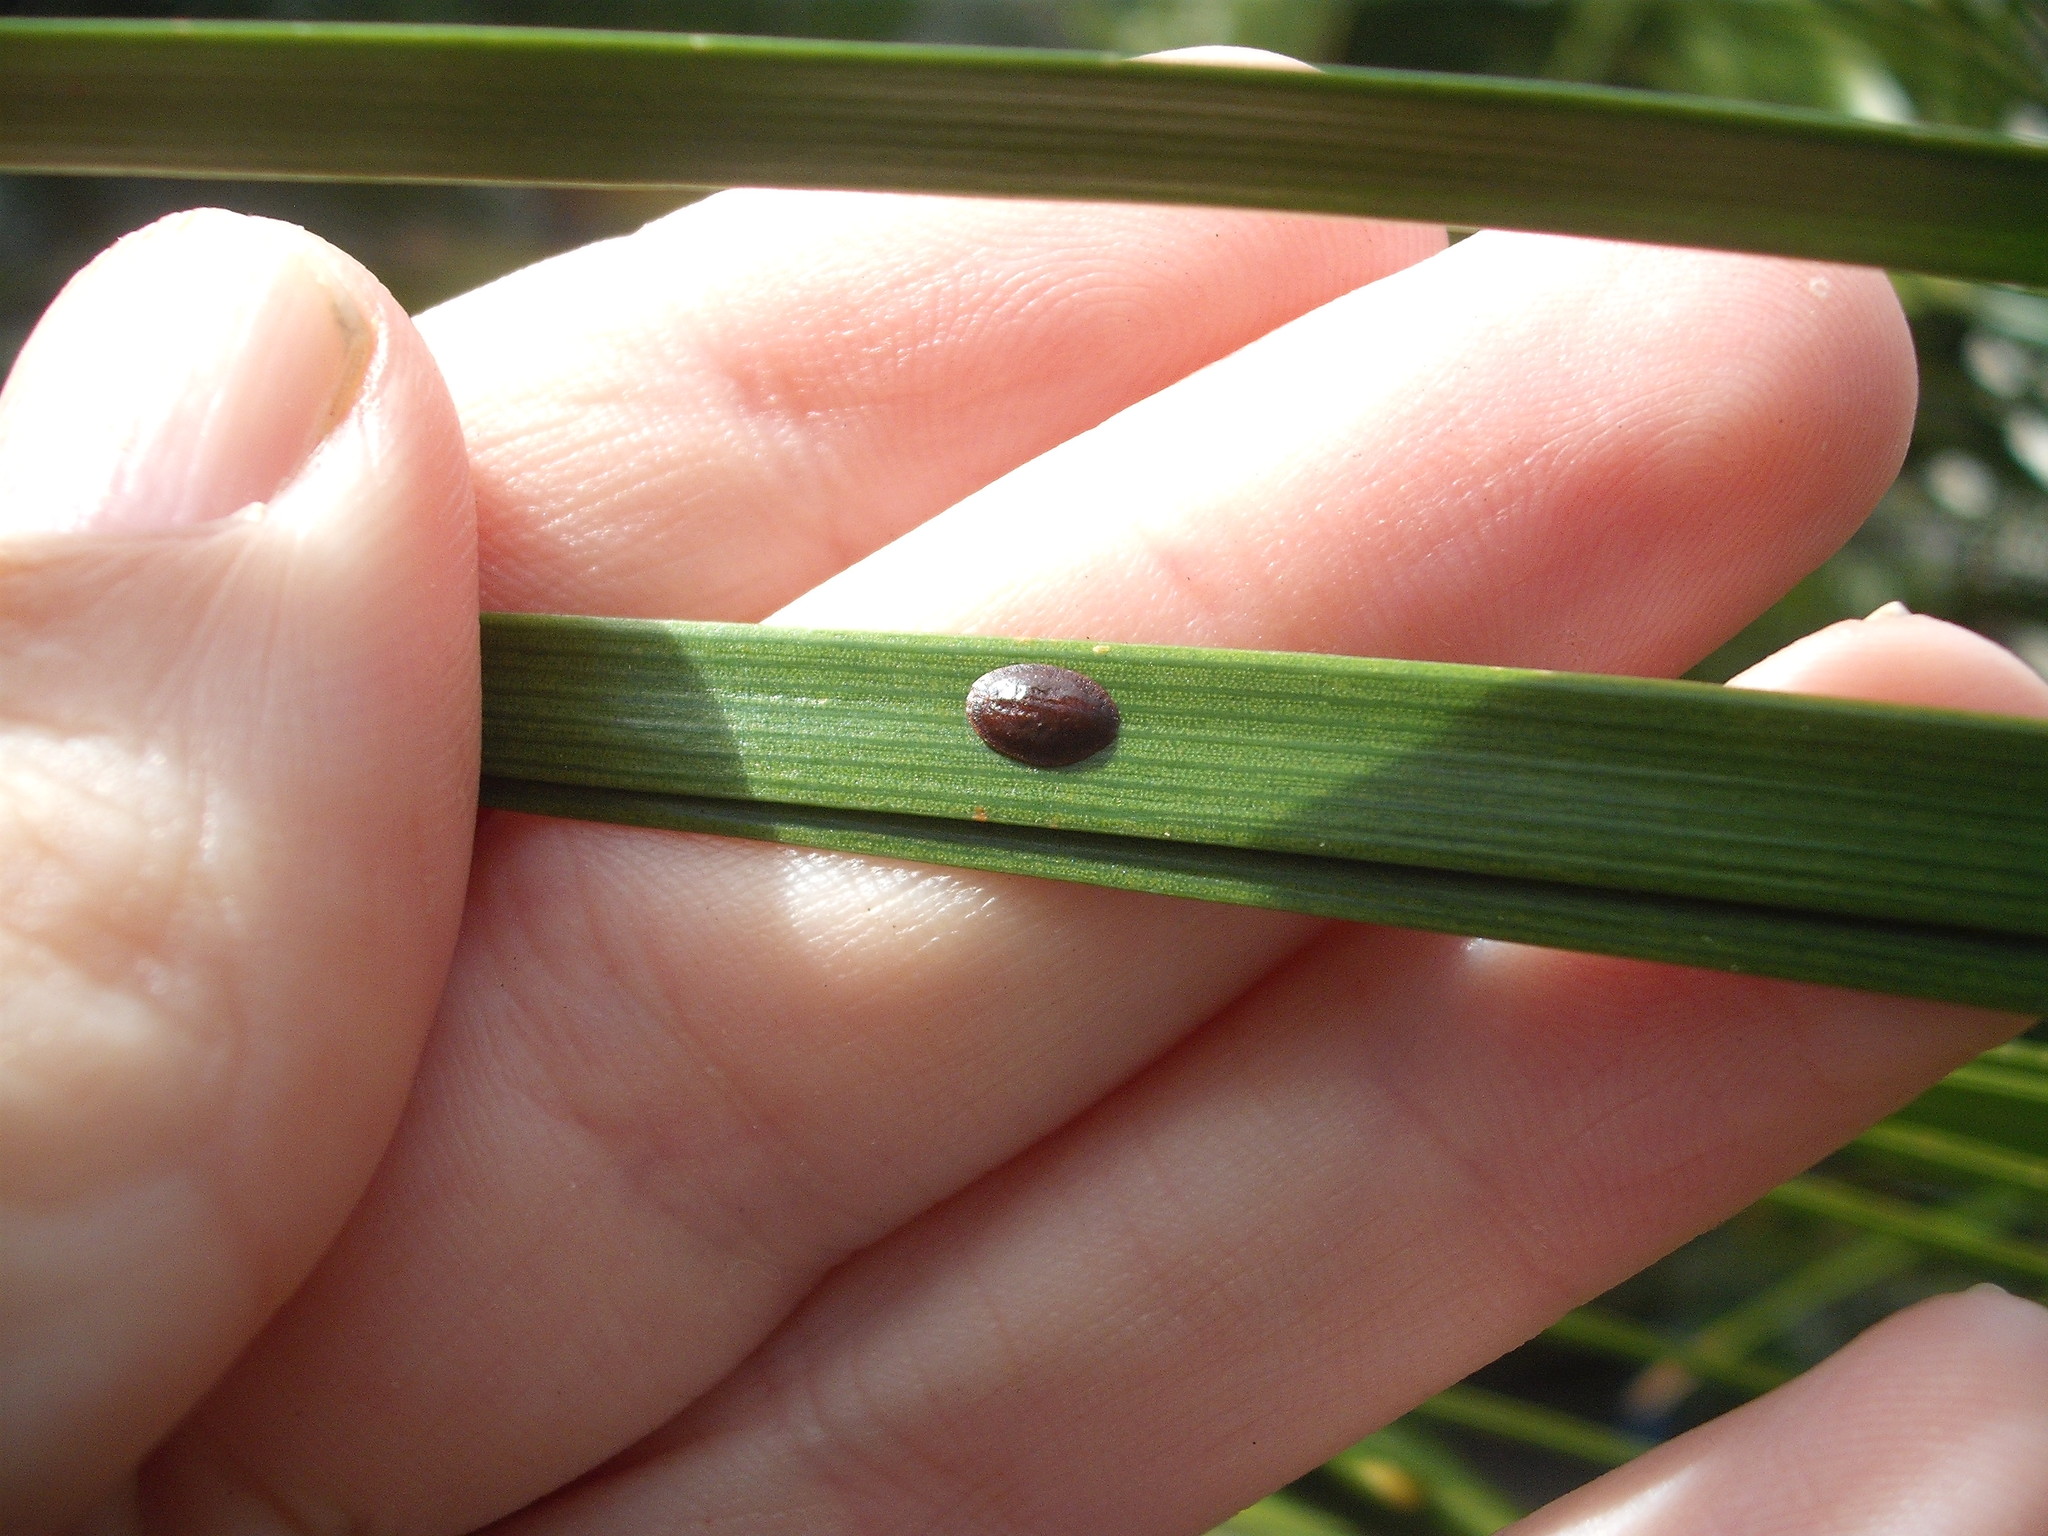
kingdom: Animalia
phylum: Arthropoda
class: Insecta
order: Hemiptera
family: Coccidae
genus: Parasaissetia
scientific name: Parasaissetia nigra
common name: Black scale
